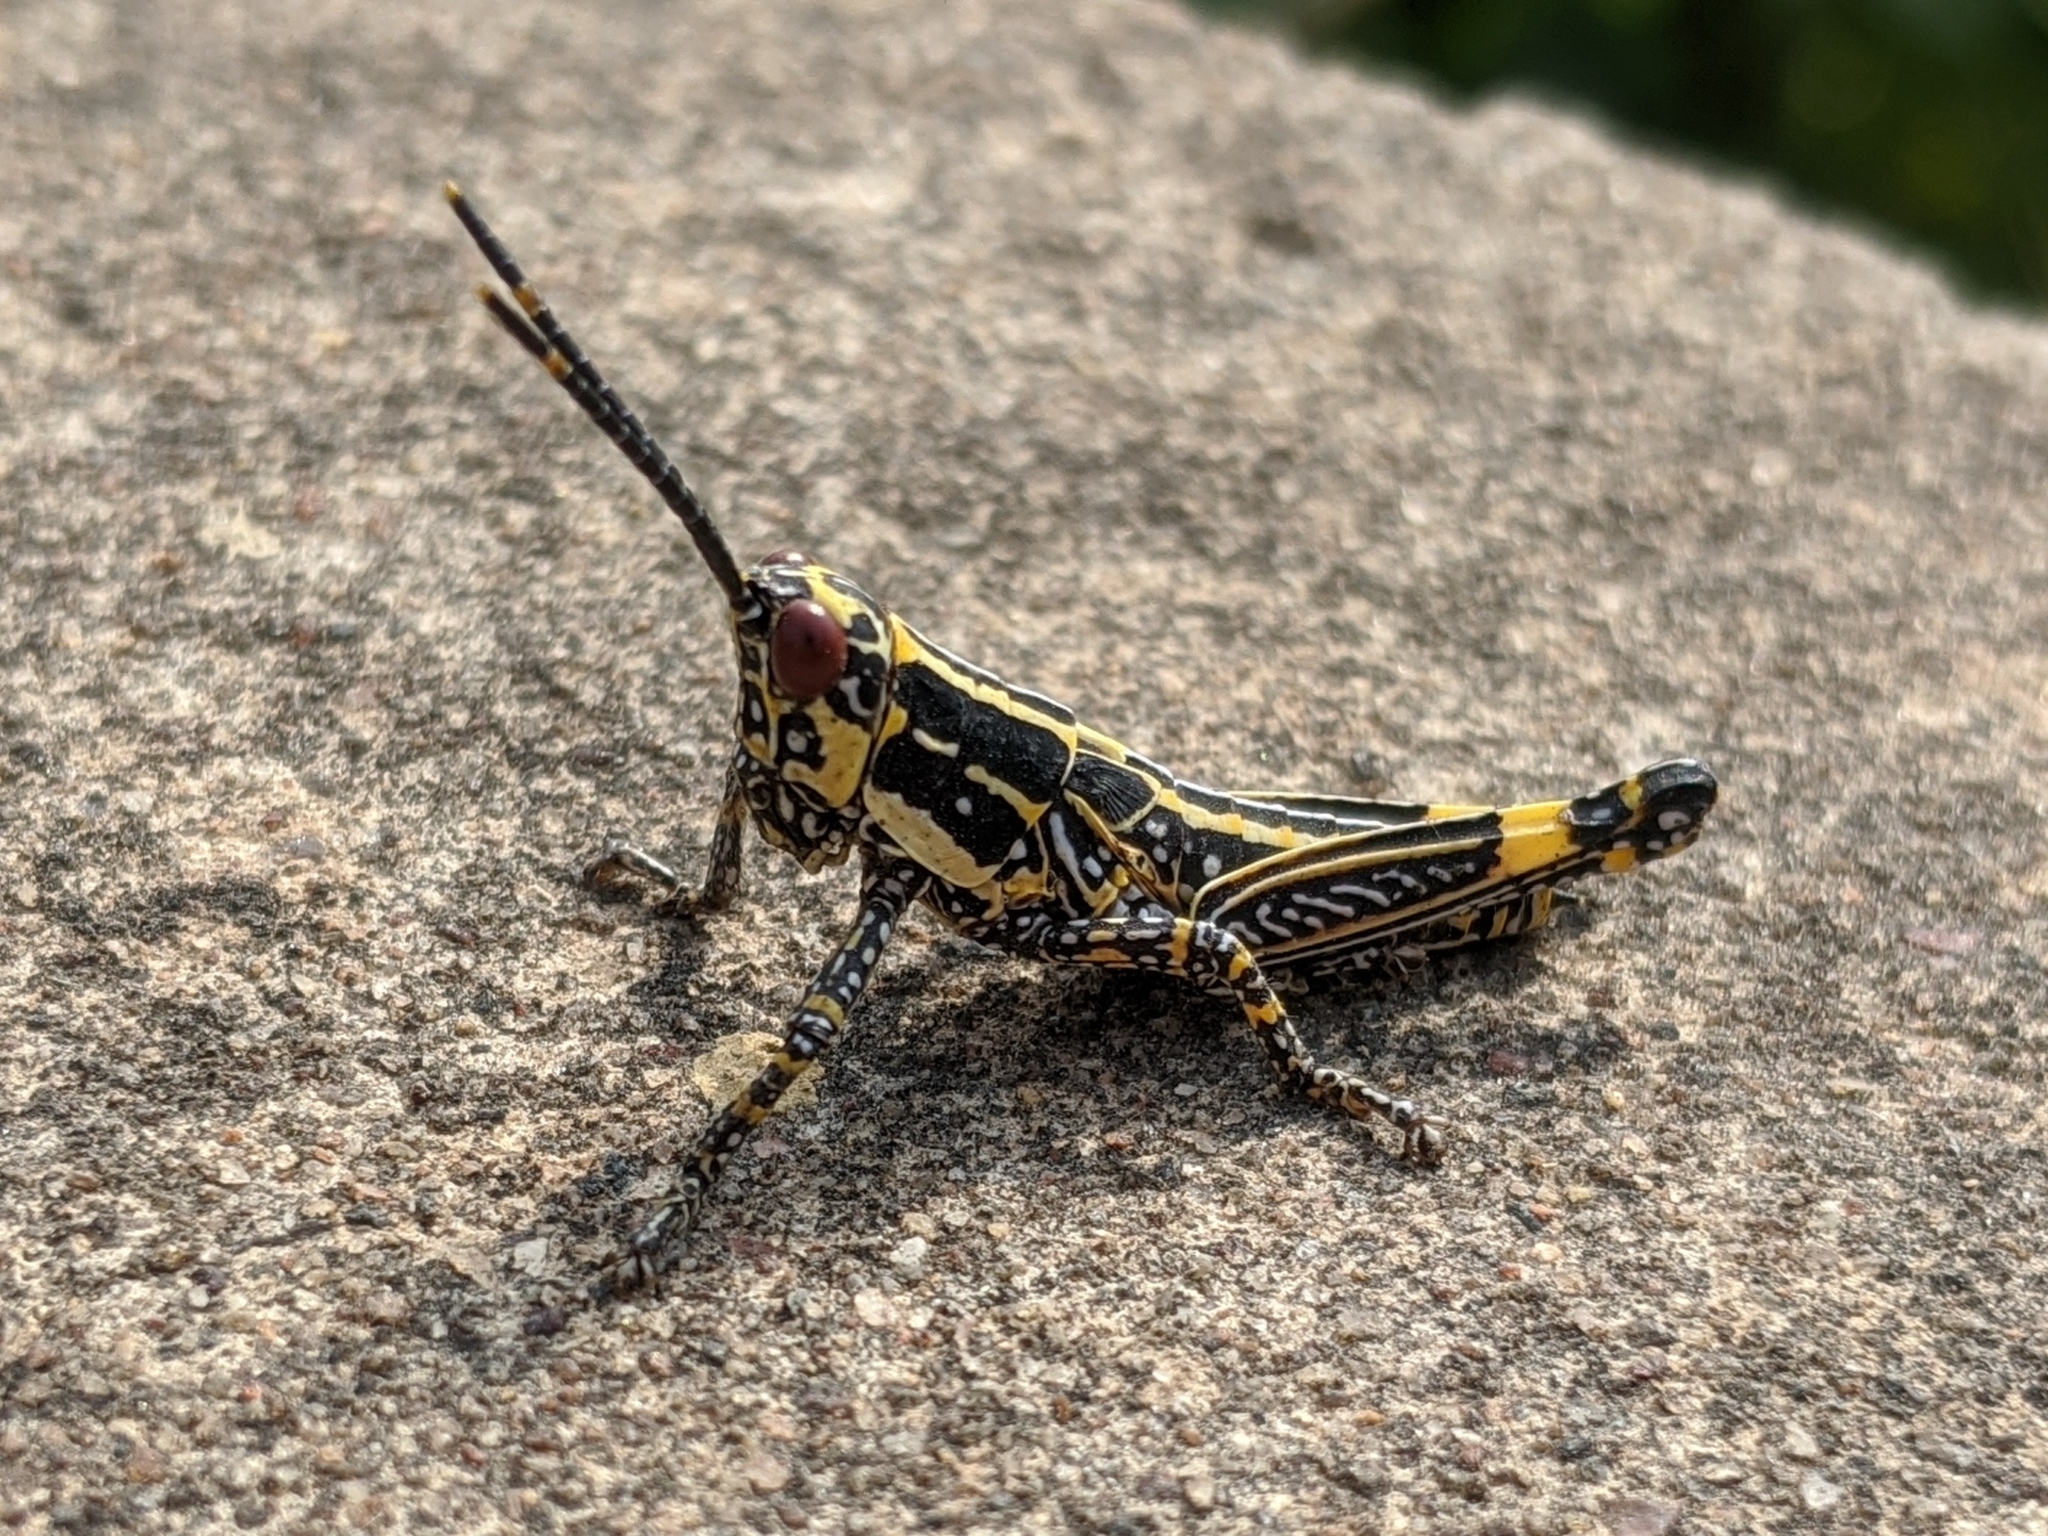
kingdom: Animalia
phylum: Arthropoda
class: Insecta
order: Orthoptera
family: Pyrgomorphidae
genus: Zonocerus
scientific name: Zonocerus variegatus
